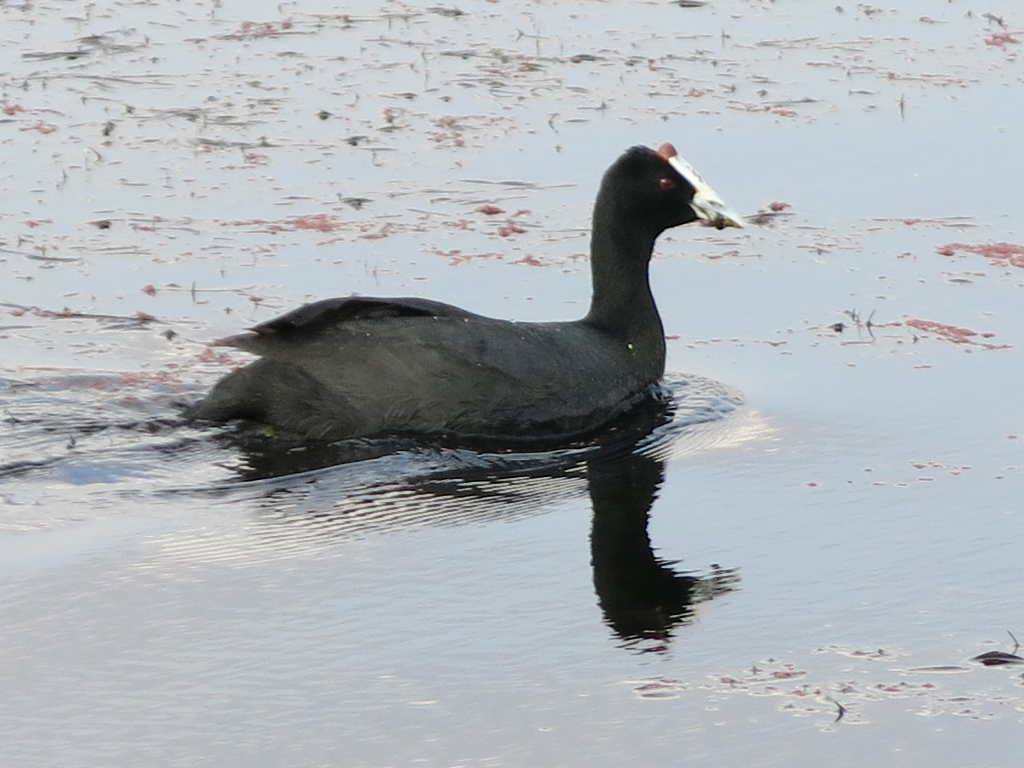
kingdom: Animalia
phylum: Chordata
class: Aves
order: Gruiformes
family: Rallidae
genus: Fulica
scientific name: Fulica cristata
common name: Red-knobbed coot
